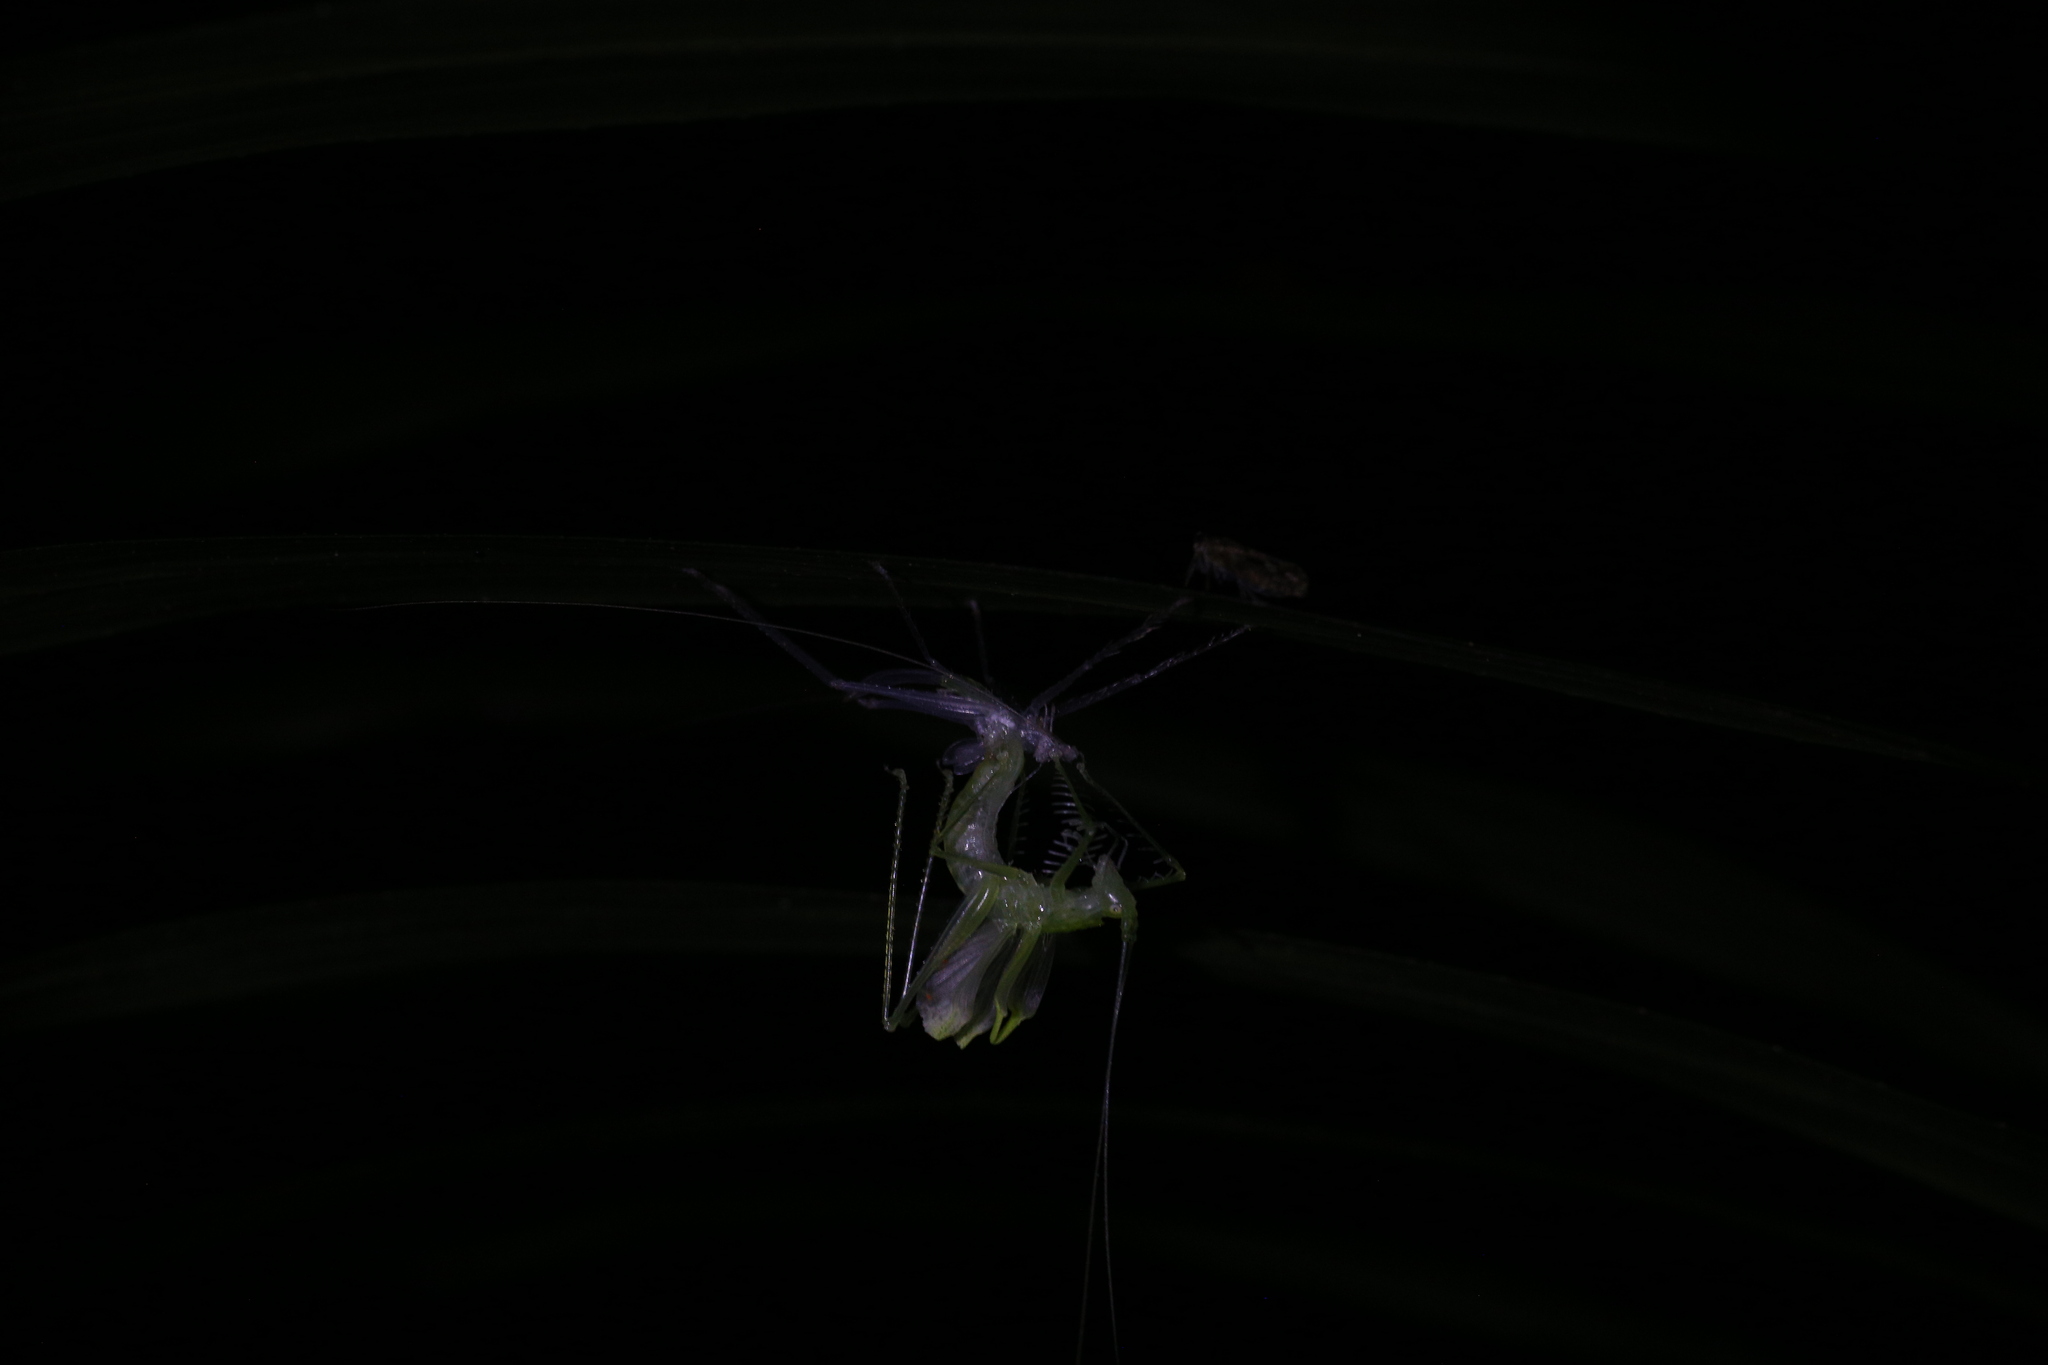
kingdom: Animalia
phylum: Arthropoda
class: Insecta
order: Orthoptera
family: Tettigoniidae
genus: Paraphisis
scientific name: Paraphisis chopardi
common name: Chopard's spider katydid
